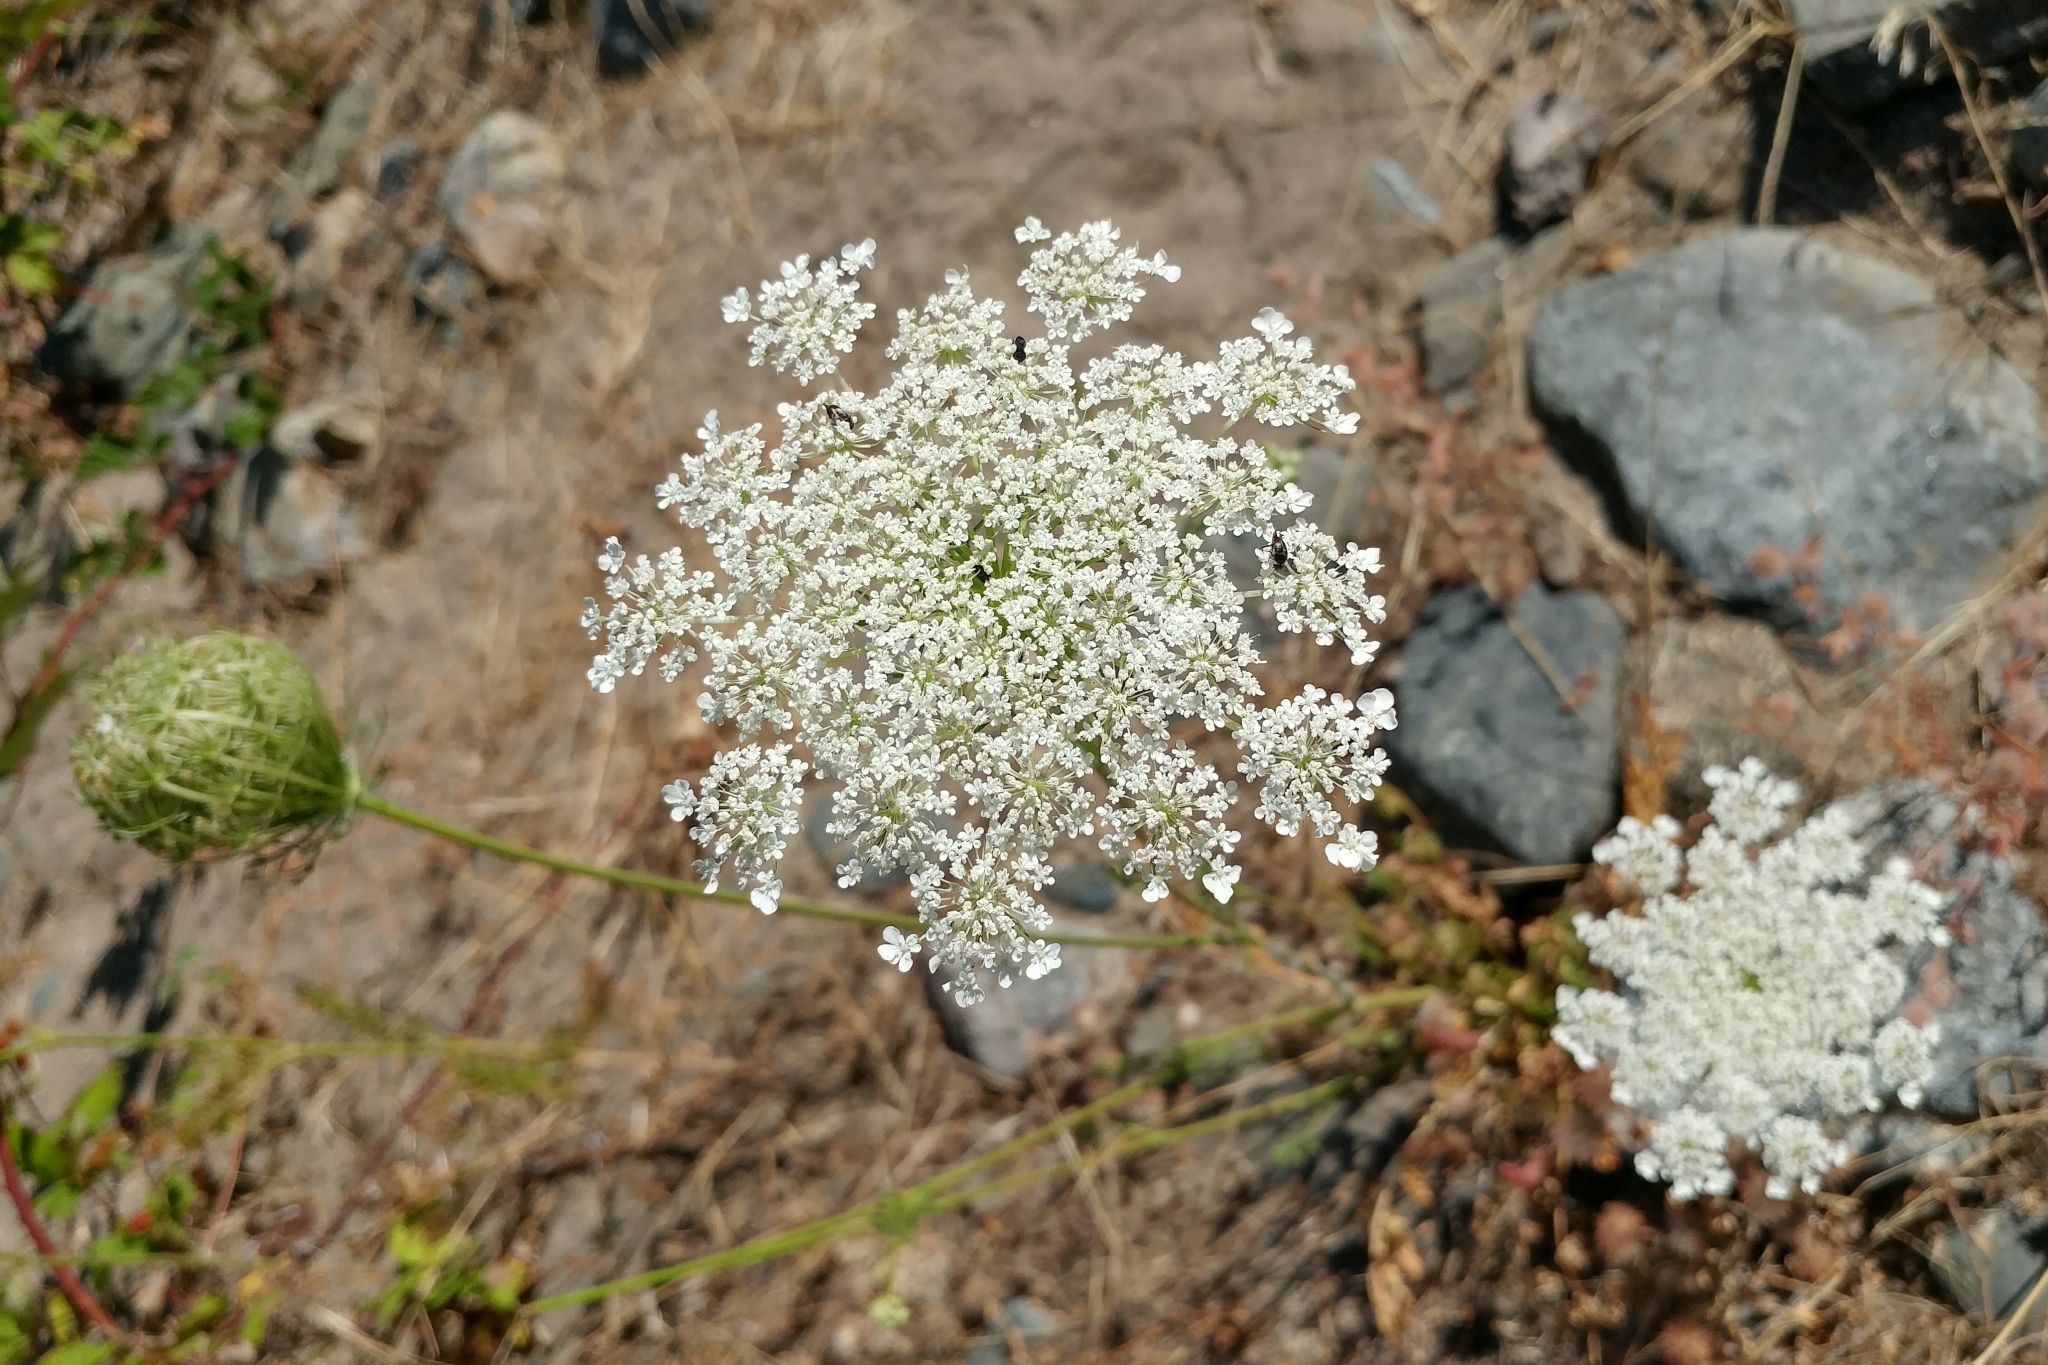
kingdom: Plantae
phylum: Tracheophyta
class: Magnoliopsida
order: Apiales
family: Apiaceae
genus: Daucus
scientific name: Daucus carota
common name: Wild carrot
